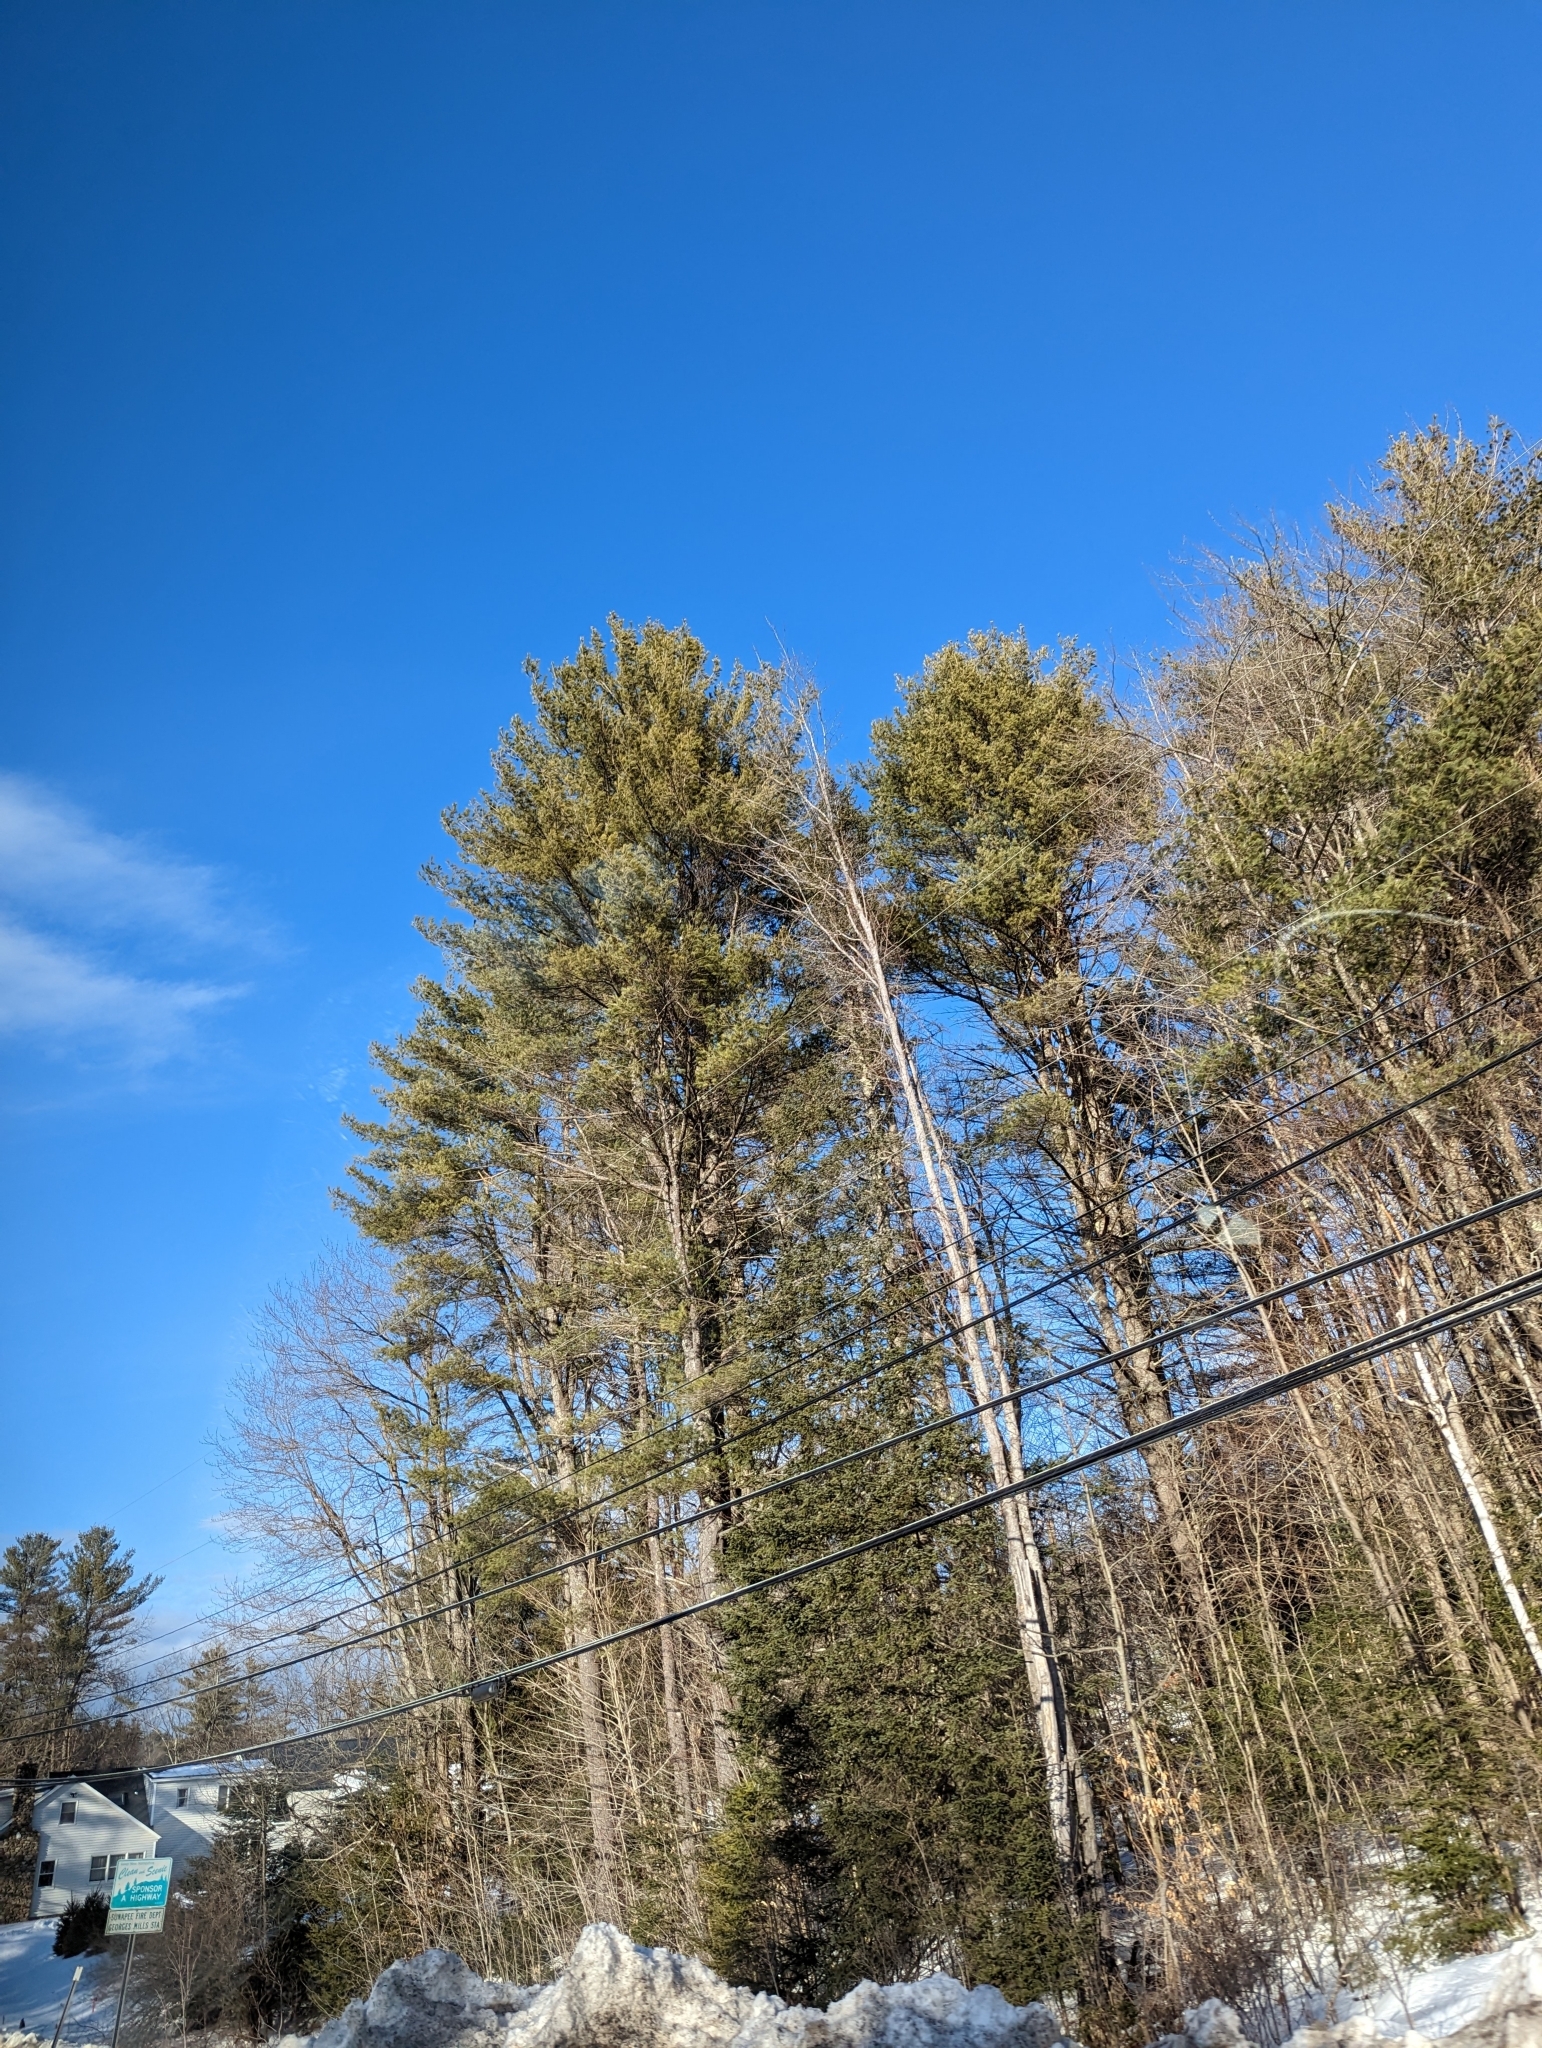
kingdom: Plantae
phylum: Tracheophyta
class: Pinopsida
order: Pinales
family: Pinaceae
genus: Pinus
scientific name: Pinus strobus
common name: Weymouth pine
